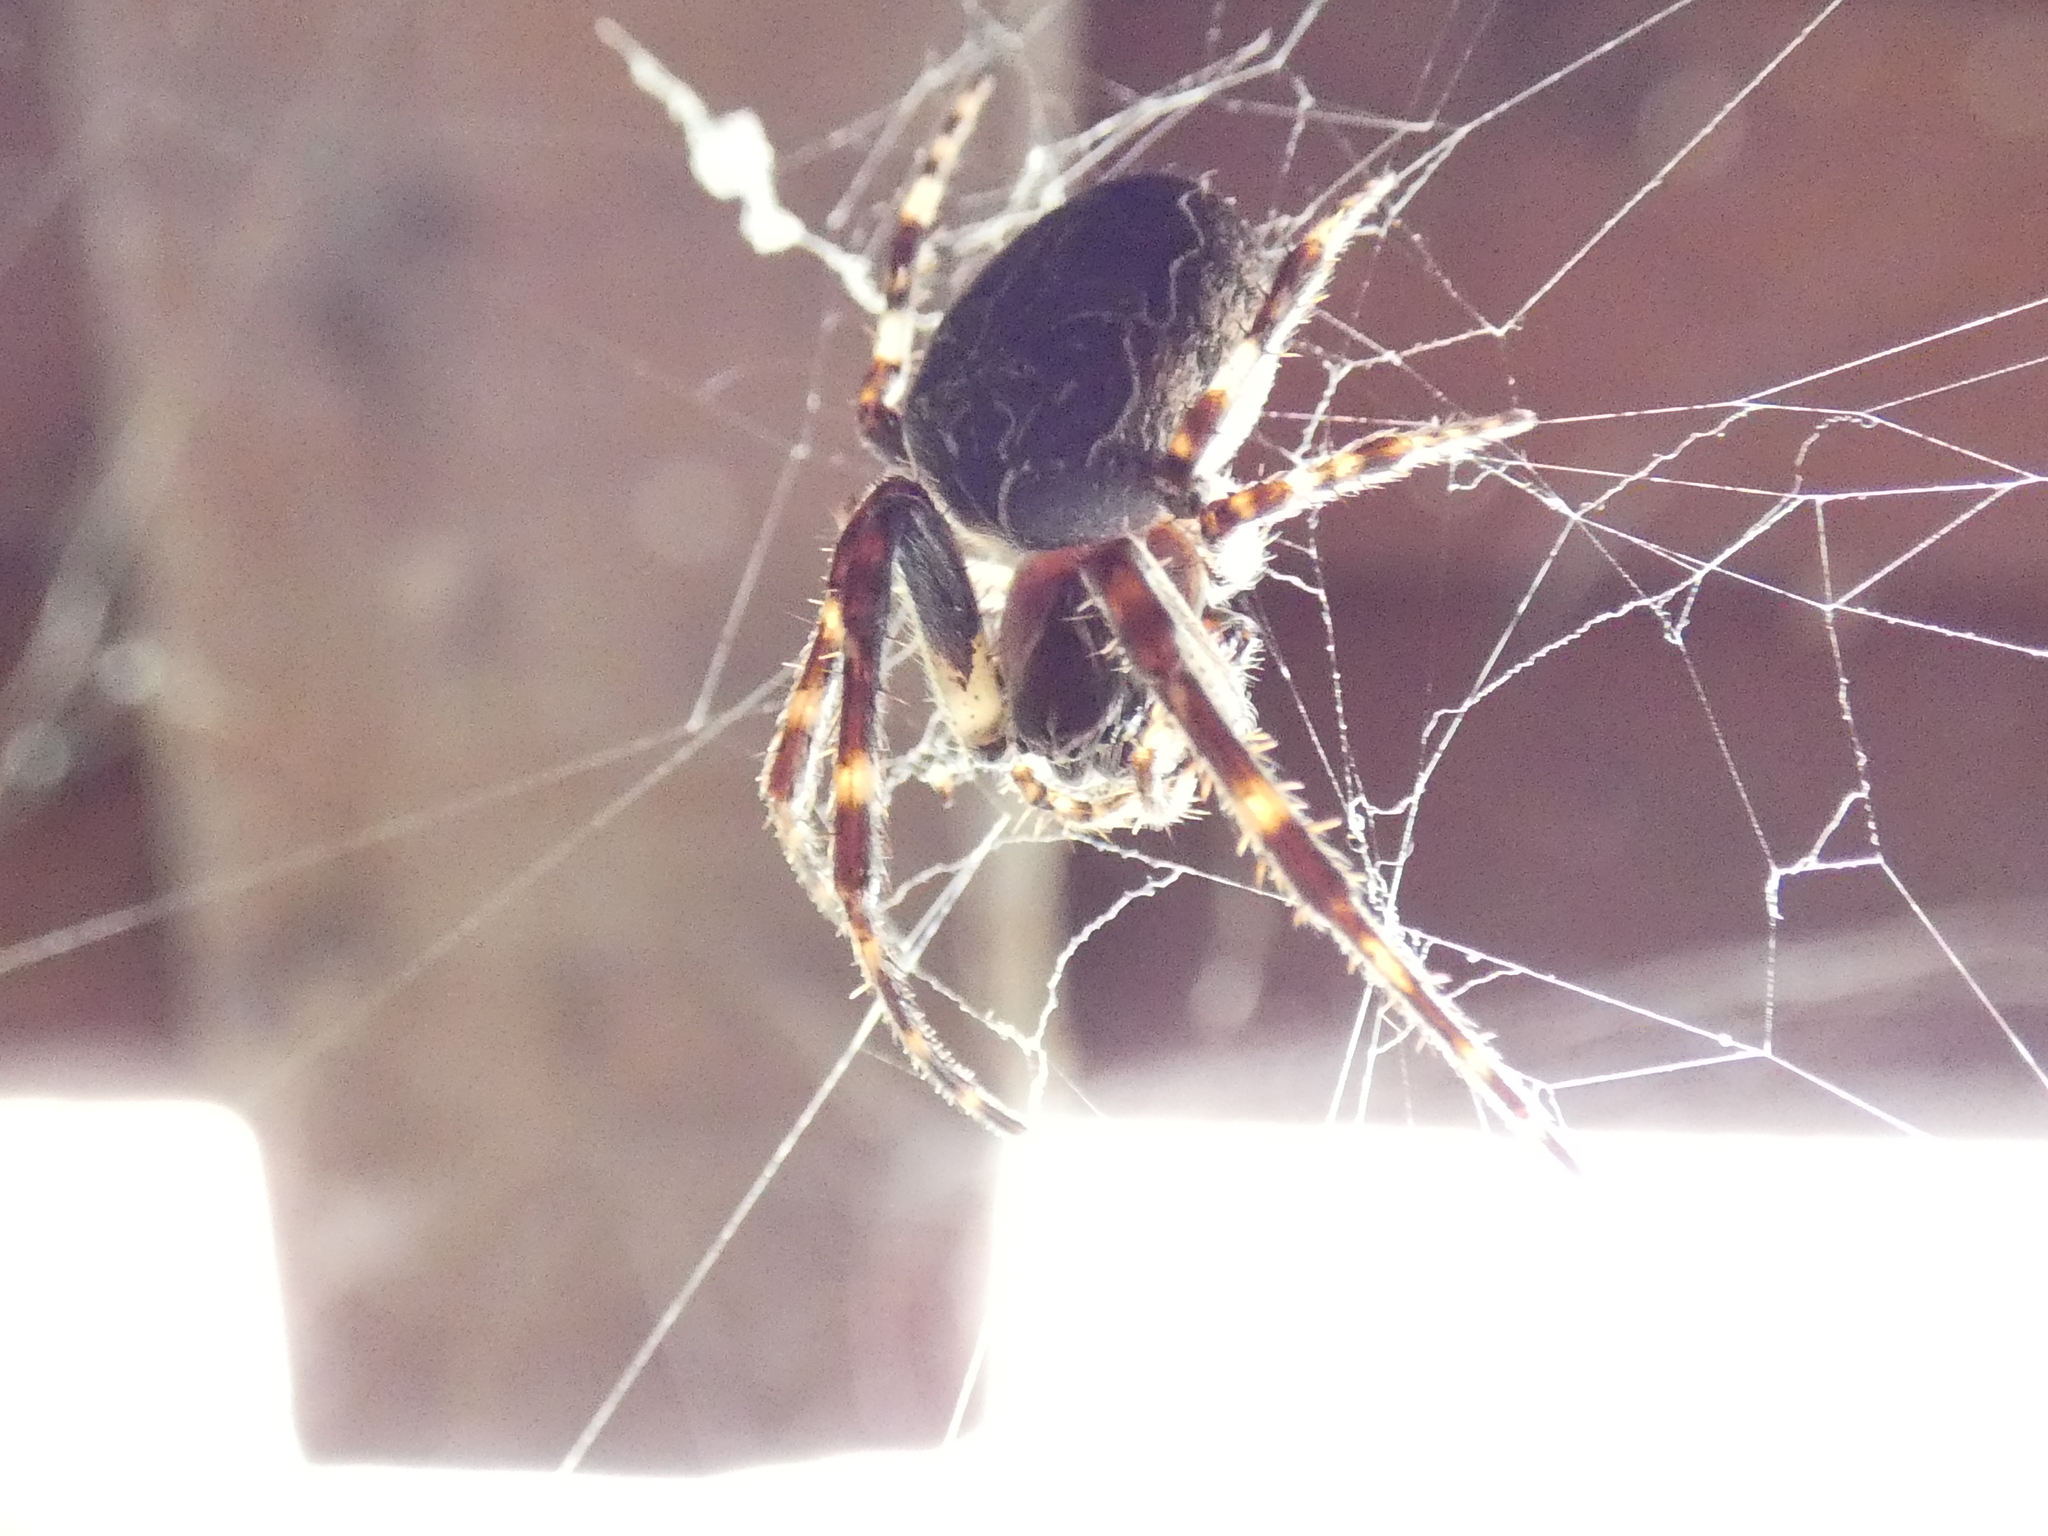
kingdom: Animalia
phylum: Arthropoda
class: Arachnida
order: Araneae
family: Araneidae
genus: Larinioides
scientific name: Larinioides sclopetarius
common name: Bridge orbweaver
